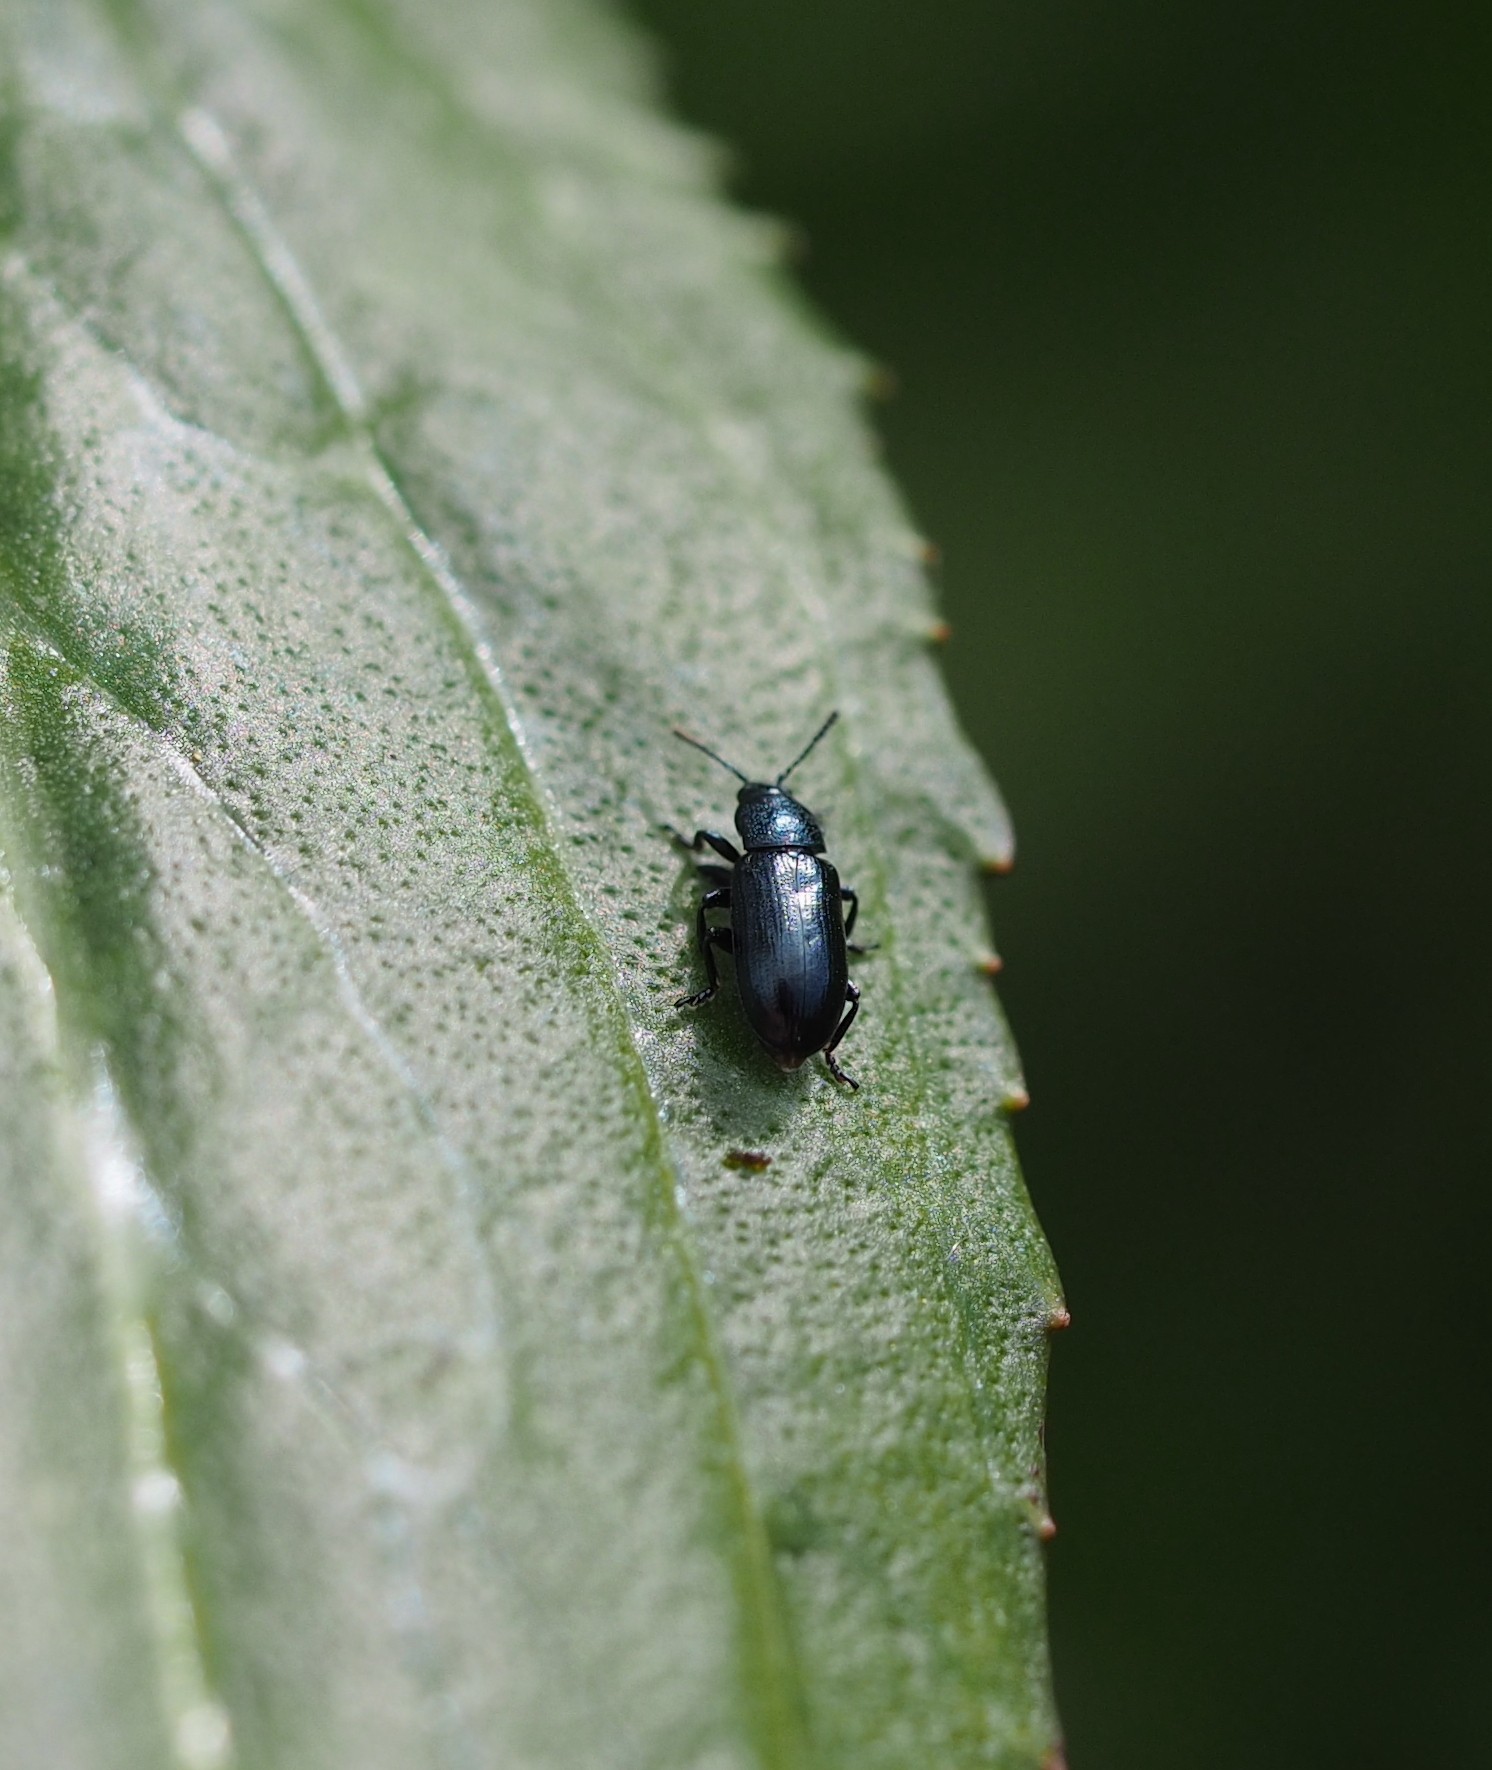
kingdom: Animalia
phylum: Arthropoda
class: Insecta
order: Coleoptera
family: Chrysomelidae
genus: Prasocuris
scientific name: Prasocuris junci
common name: Brooklime leaf beetle
